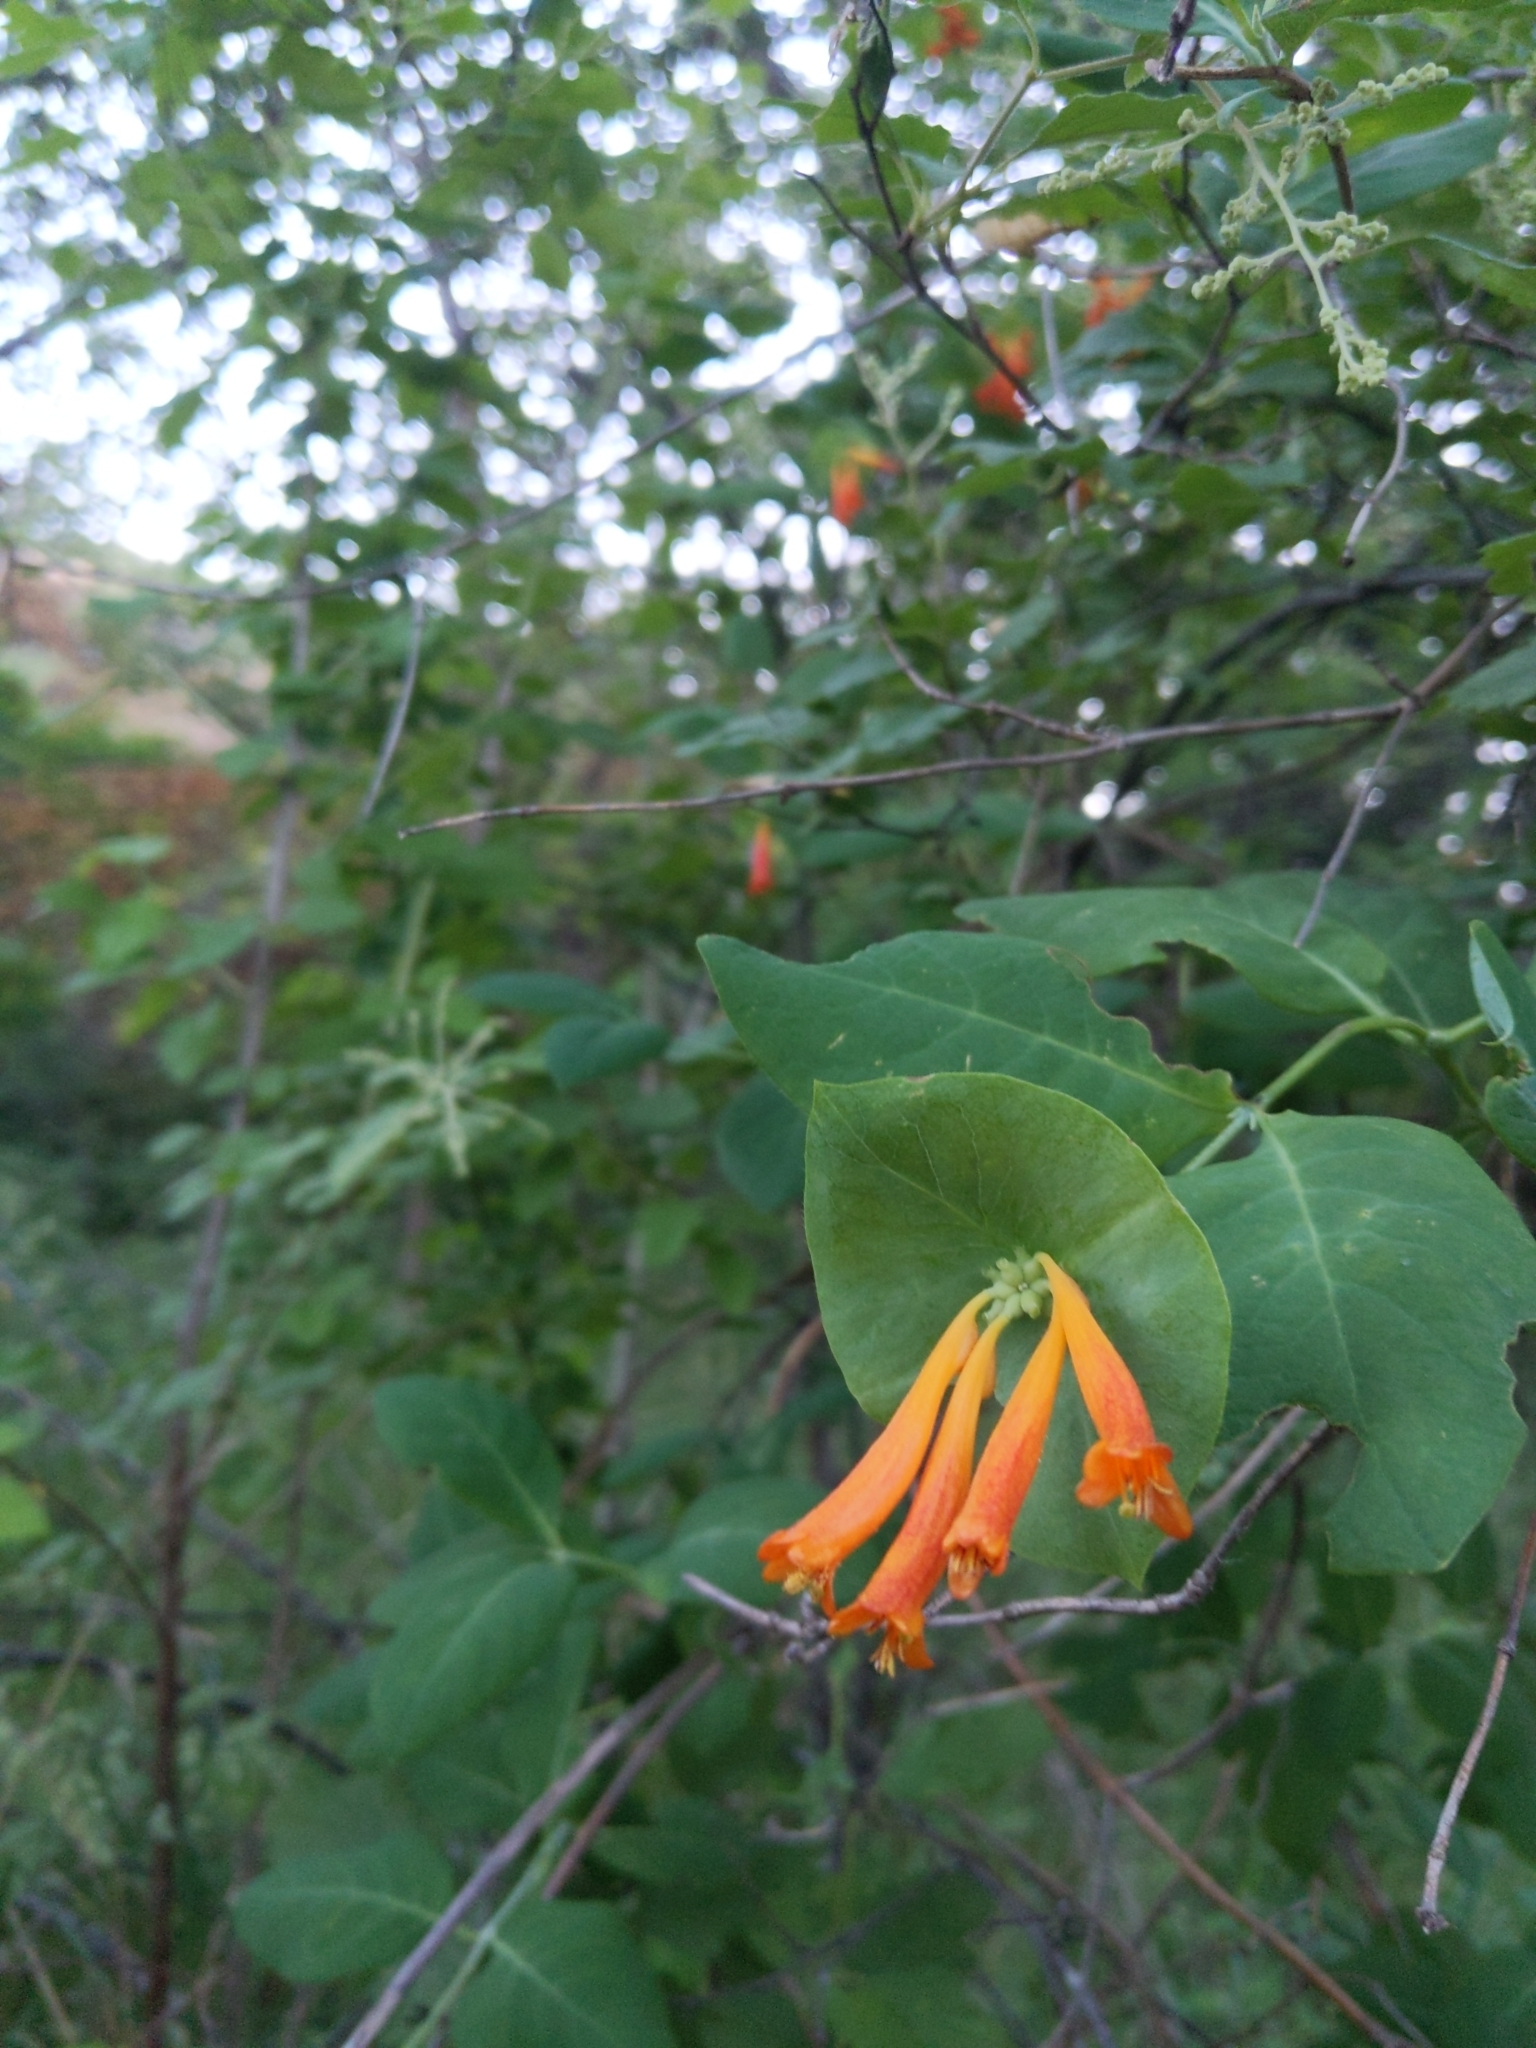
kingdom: Plantae
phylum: Tracheophyta
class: Magnoliopsida
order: Dipsacales
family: Caprifoliaceae
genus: Lonicera
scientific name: Lonicera ciliosa
